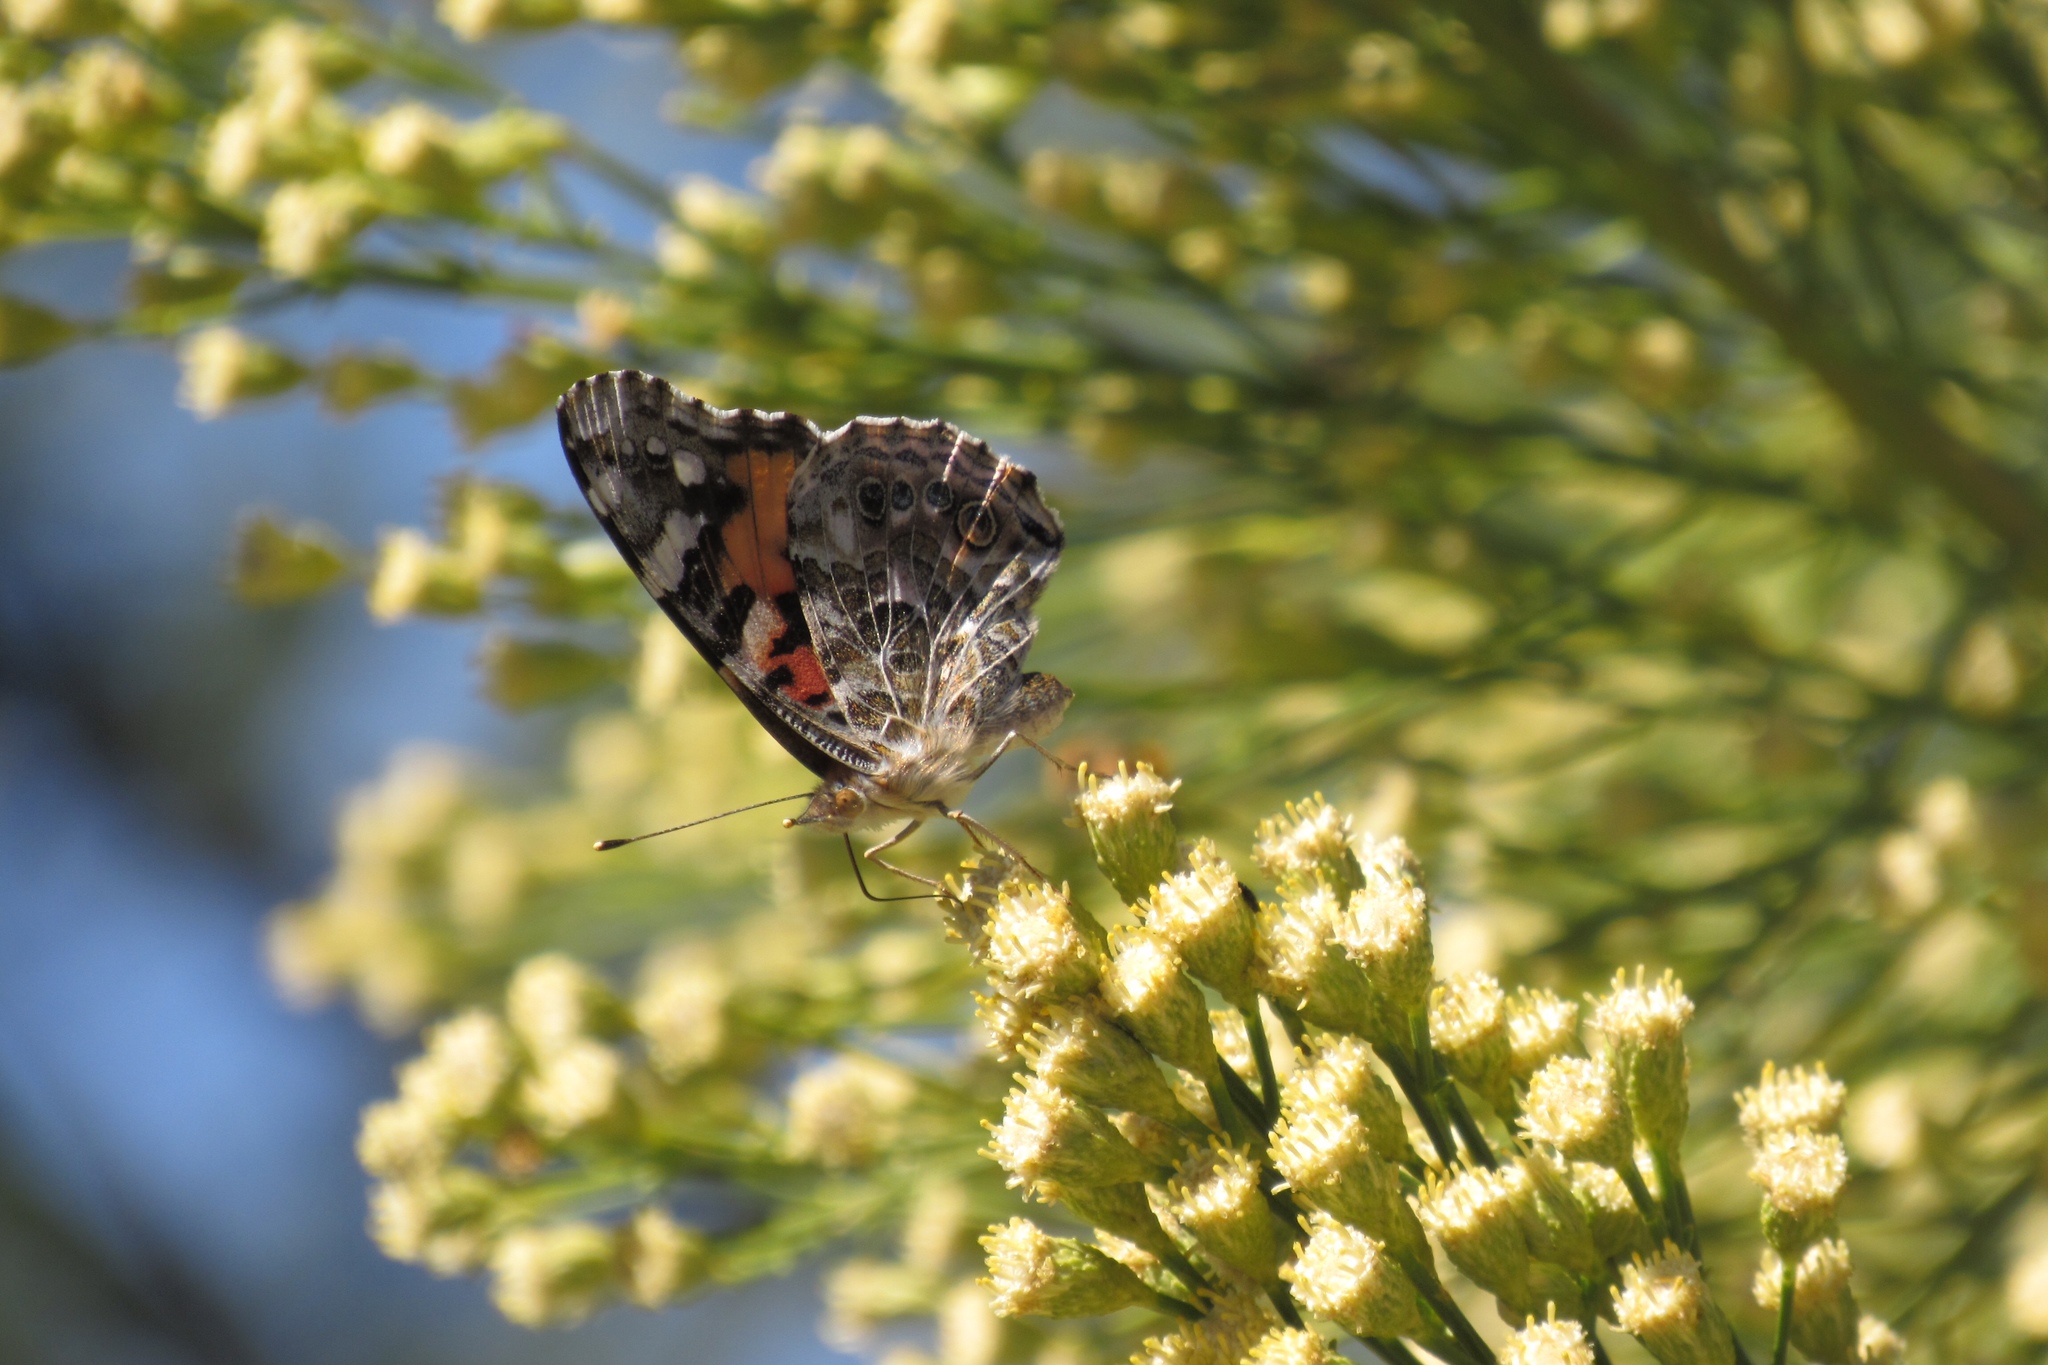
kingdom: Animalia
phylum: Arthropoda
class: Insecta
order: Lepidoptera
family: Nymphalidae
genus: Vanessa
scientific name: Vanessa cardui
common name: Painted lady
